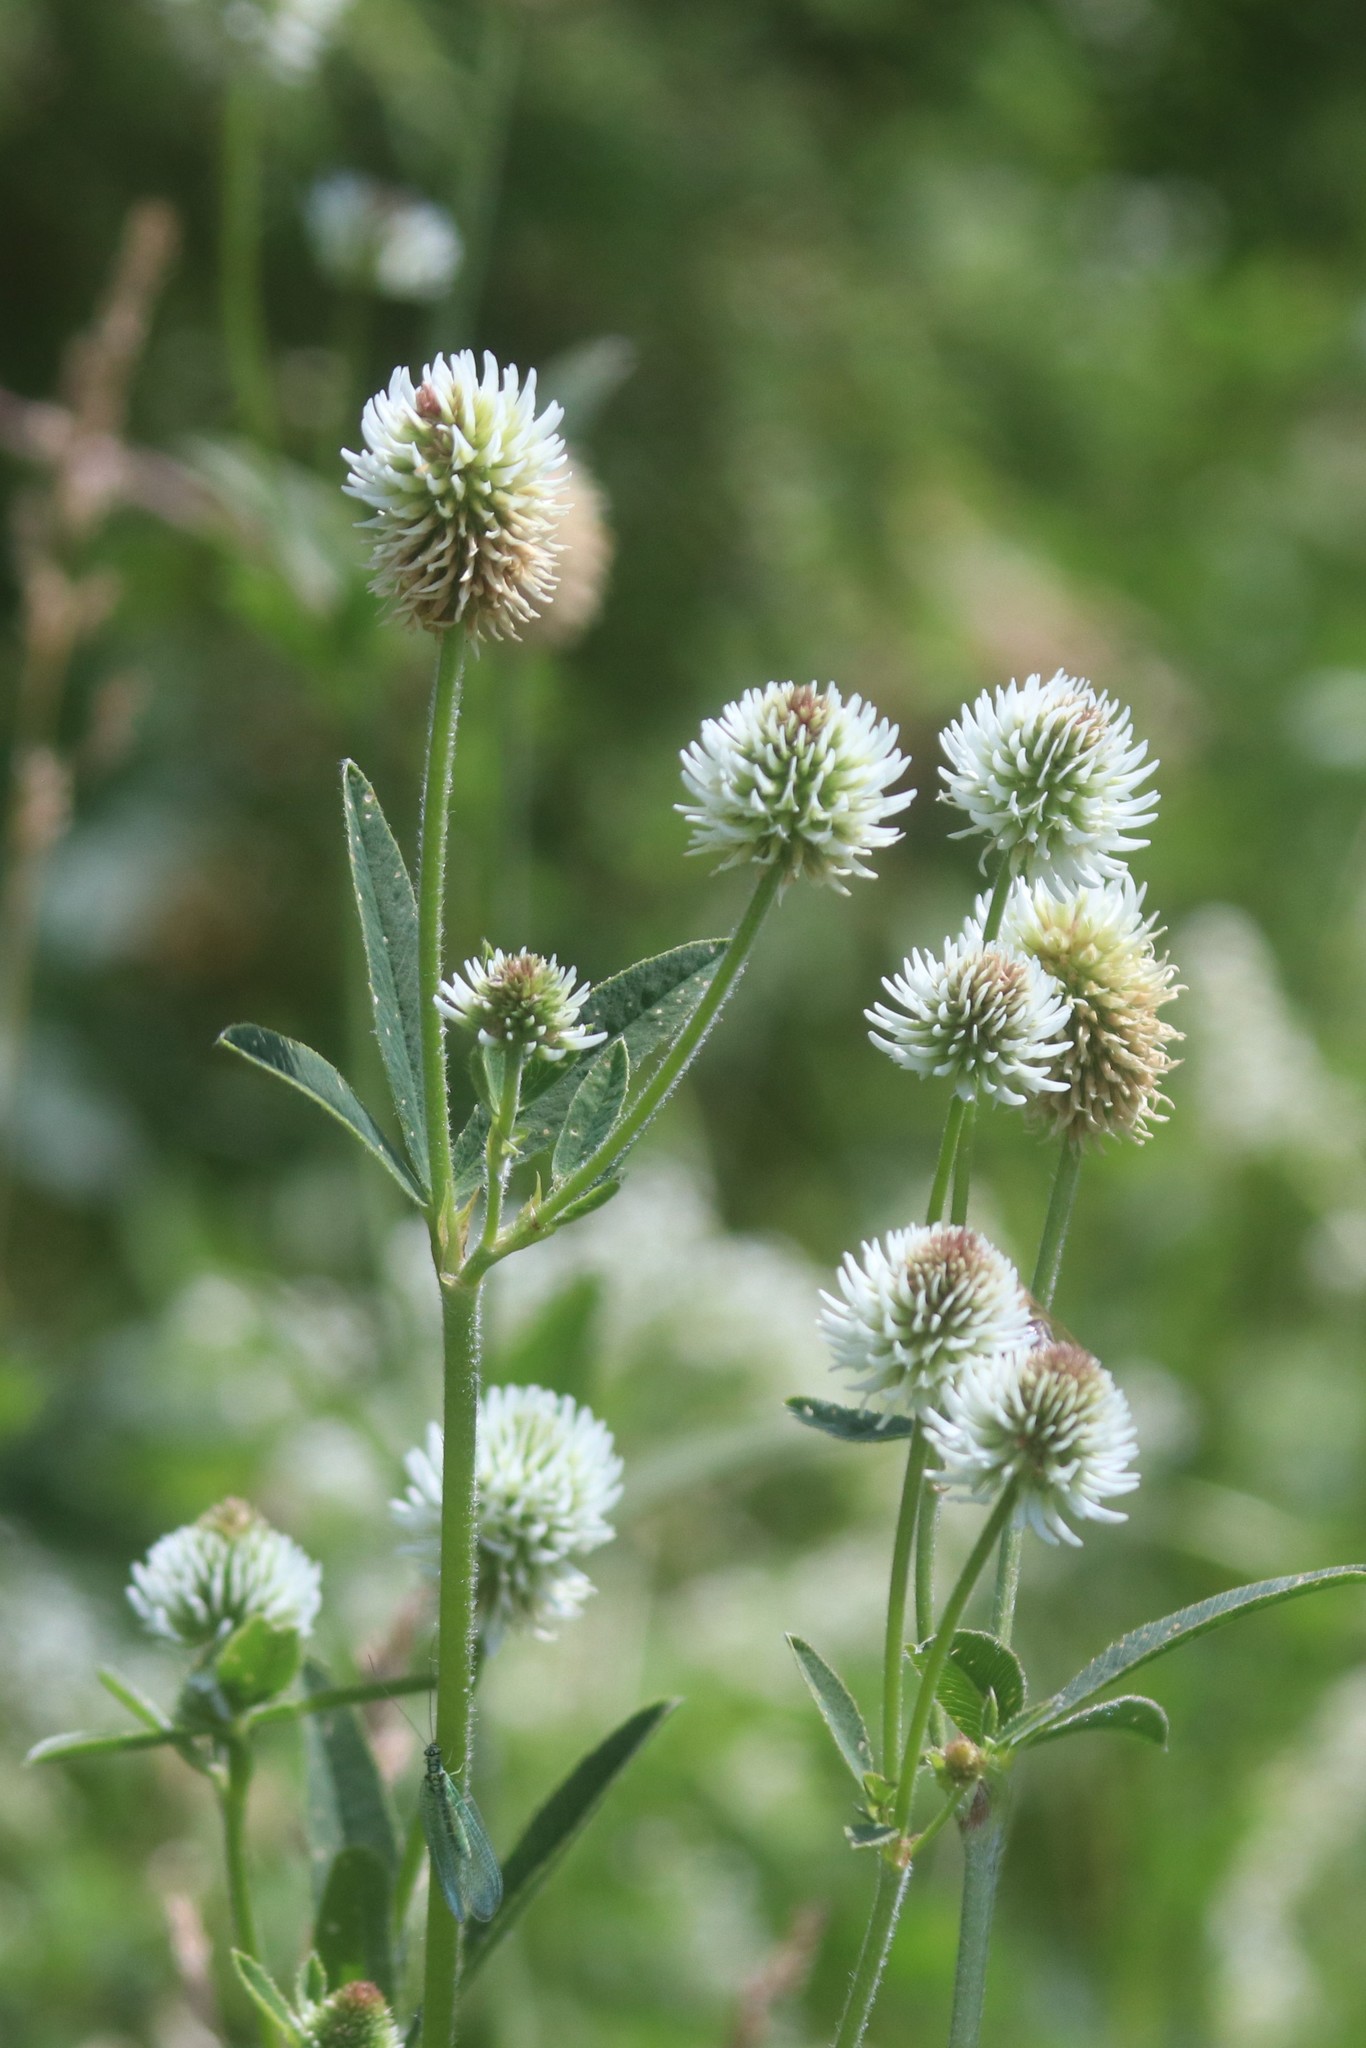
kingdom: Plantae
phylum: Tracheophyta
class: Magnoliopsida
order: Fabales
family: Fabaceae
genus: Trifolium
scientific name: Trifolium montanum
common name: Mountain clover
